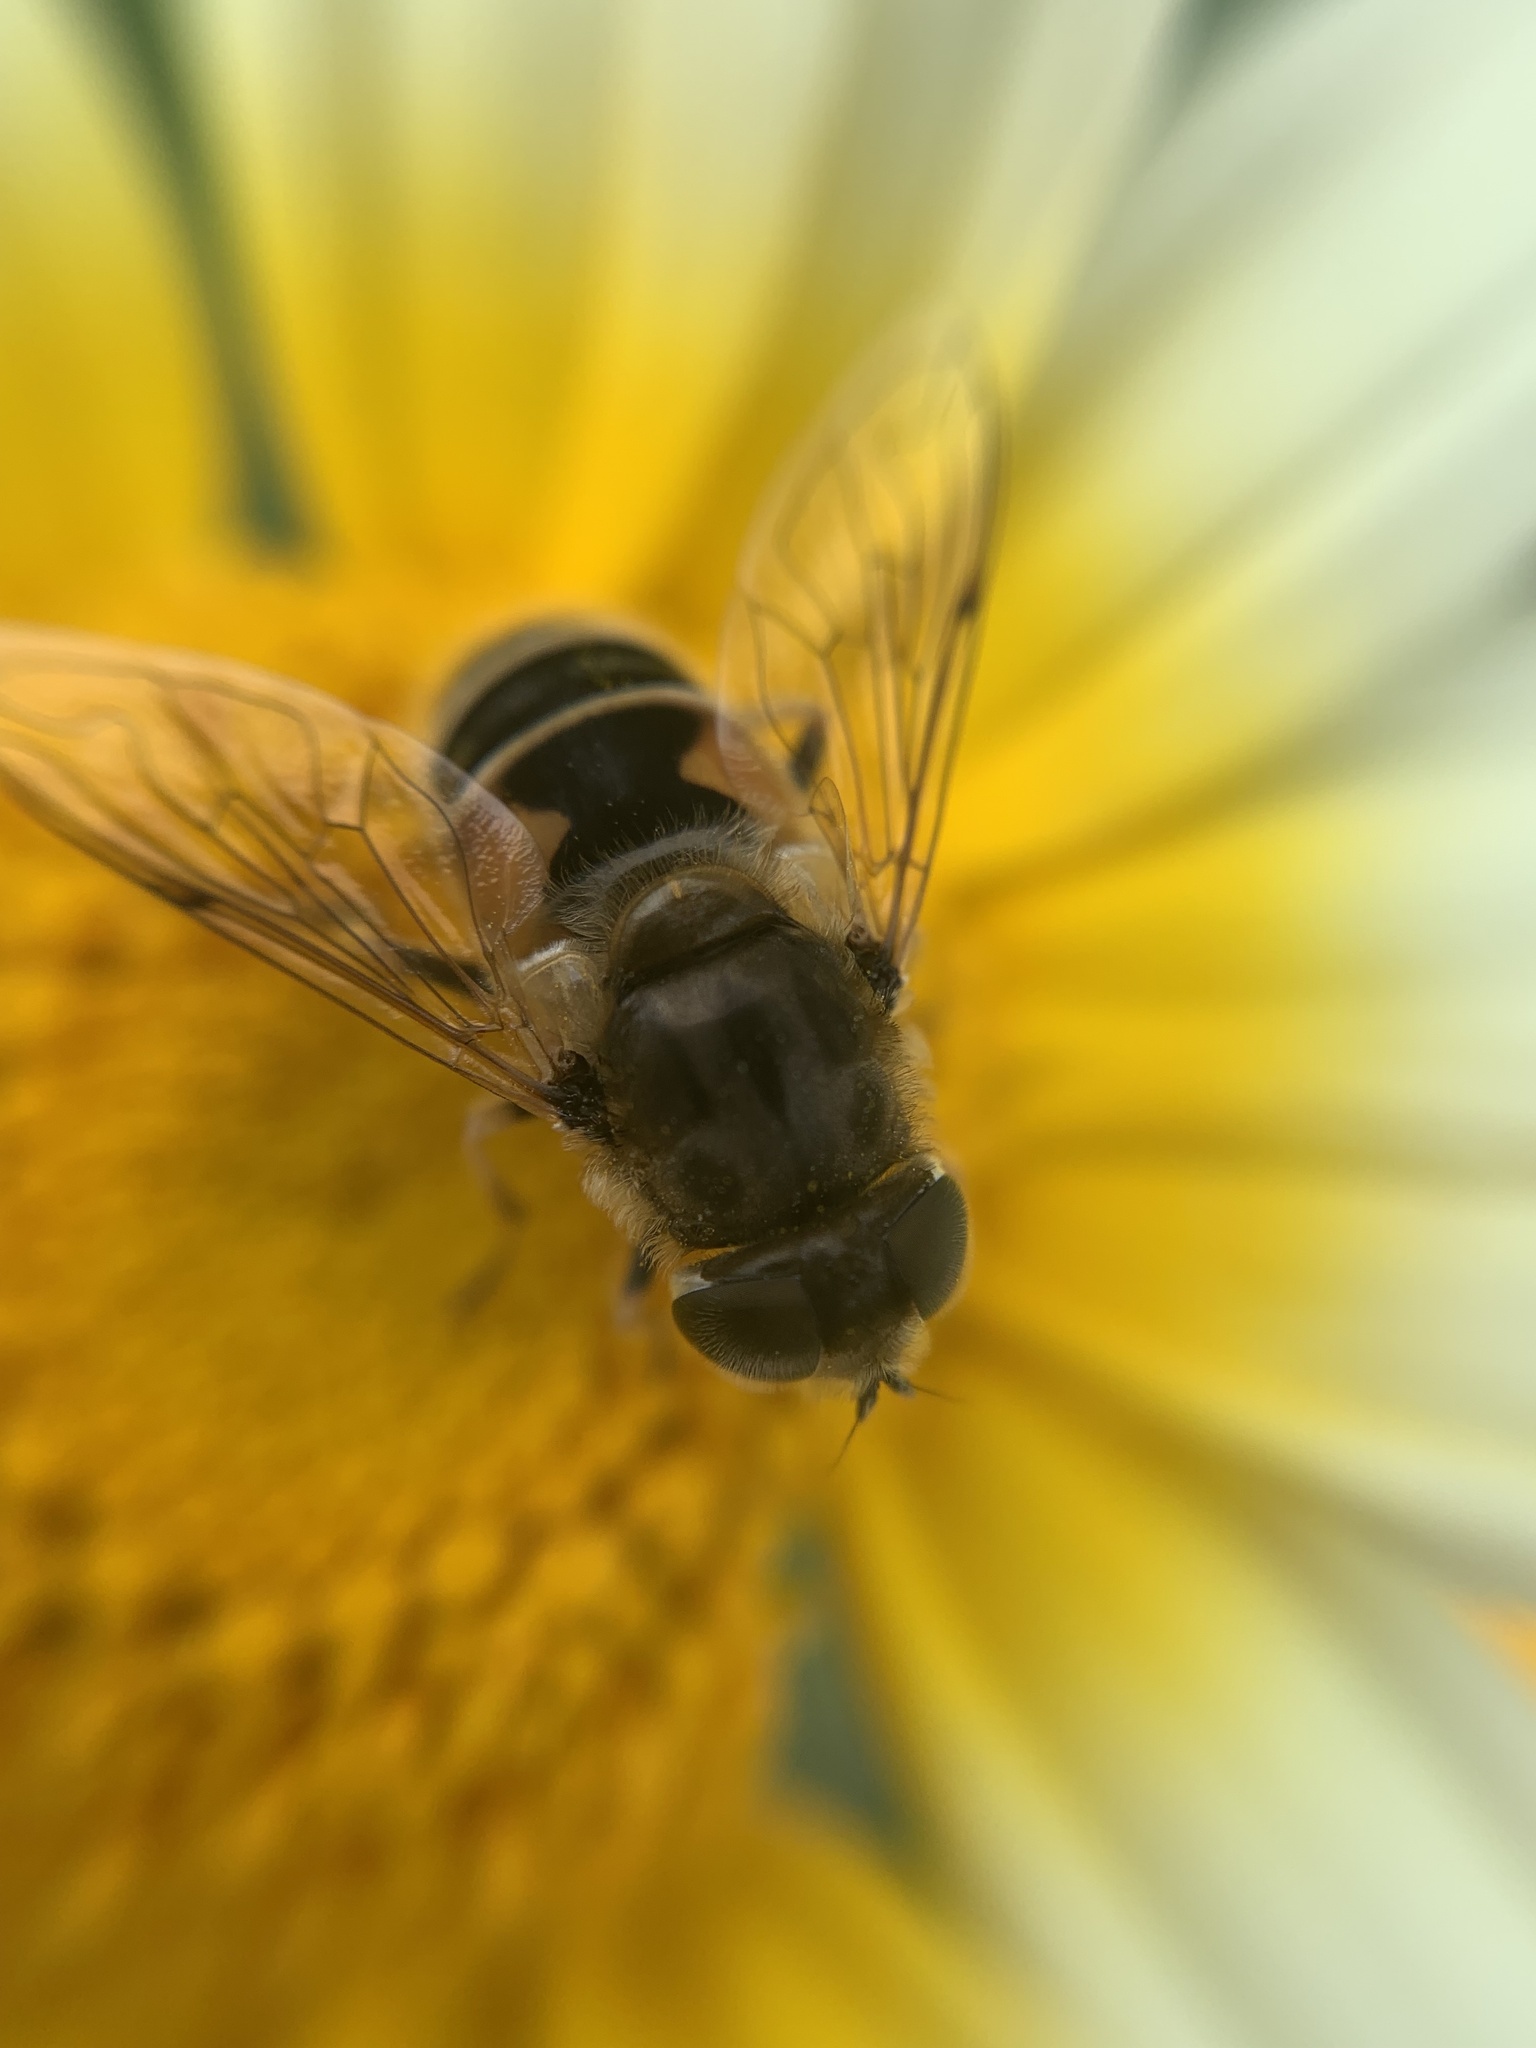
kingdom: Animalia
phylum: Arthropoda
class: Insecta
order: Diptera
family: Syrphidae
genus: Eristalis
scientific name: Eristalis arbustorum
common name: Hover fly
